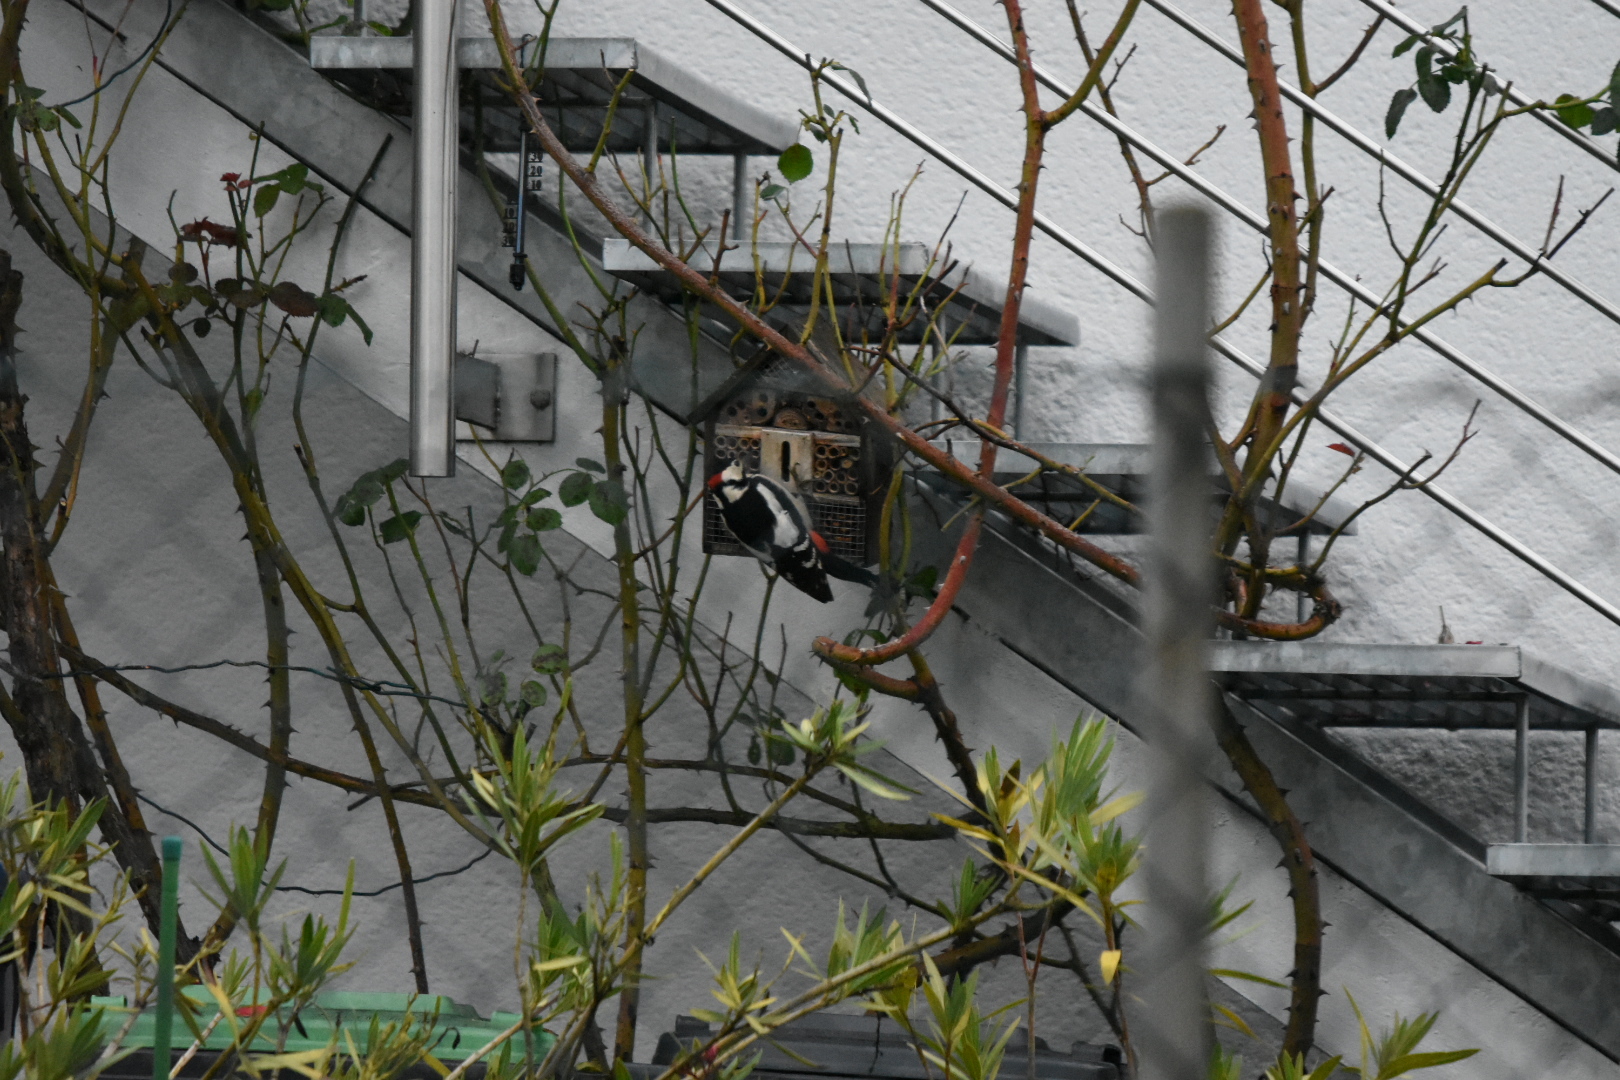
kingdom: Animalia
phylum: Chordata
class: Aves
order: Piciformes
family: Picidae
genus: Dendrocopos
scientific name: Dendrocopos major
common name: Great spotted woodpecker
